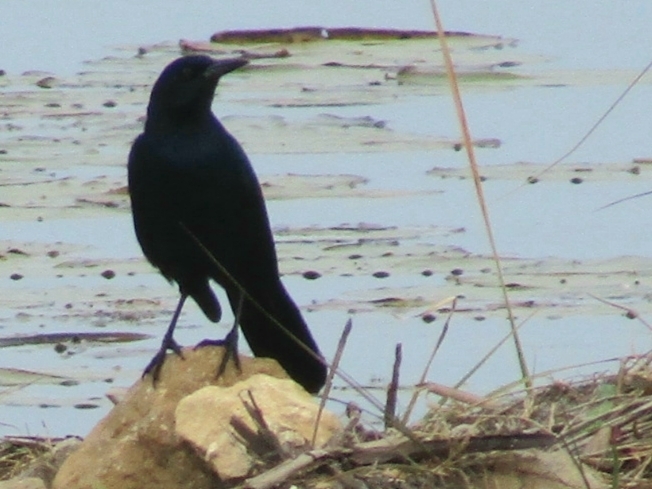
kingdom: Animalia
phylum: Chordata
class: Aves
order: Passeriformes
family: Icteridae
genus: Quiscalus
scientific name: Quiscalus major
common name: Boat-tailed grackle
